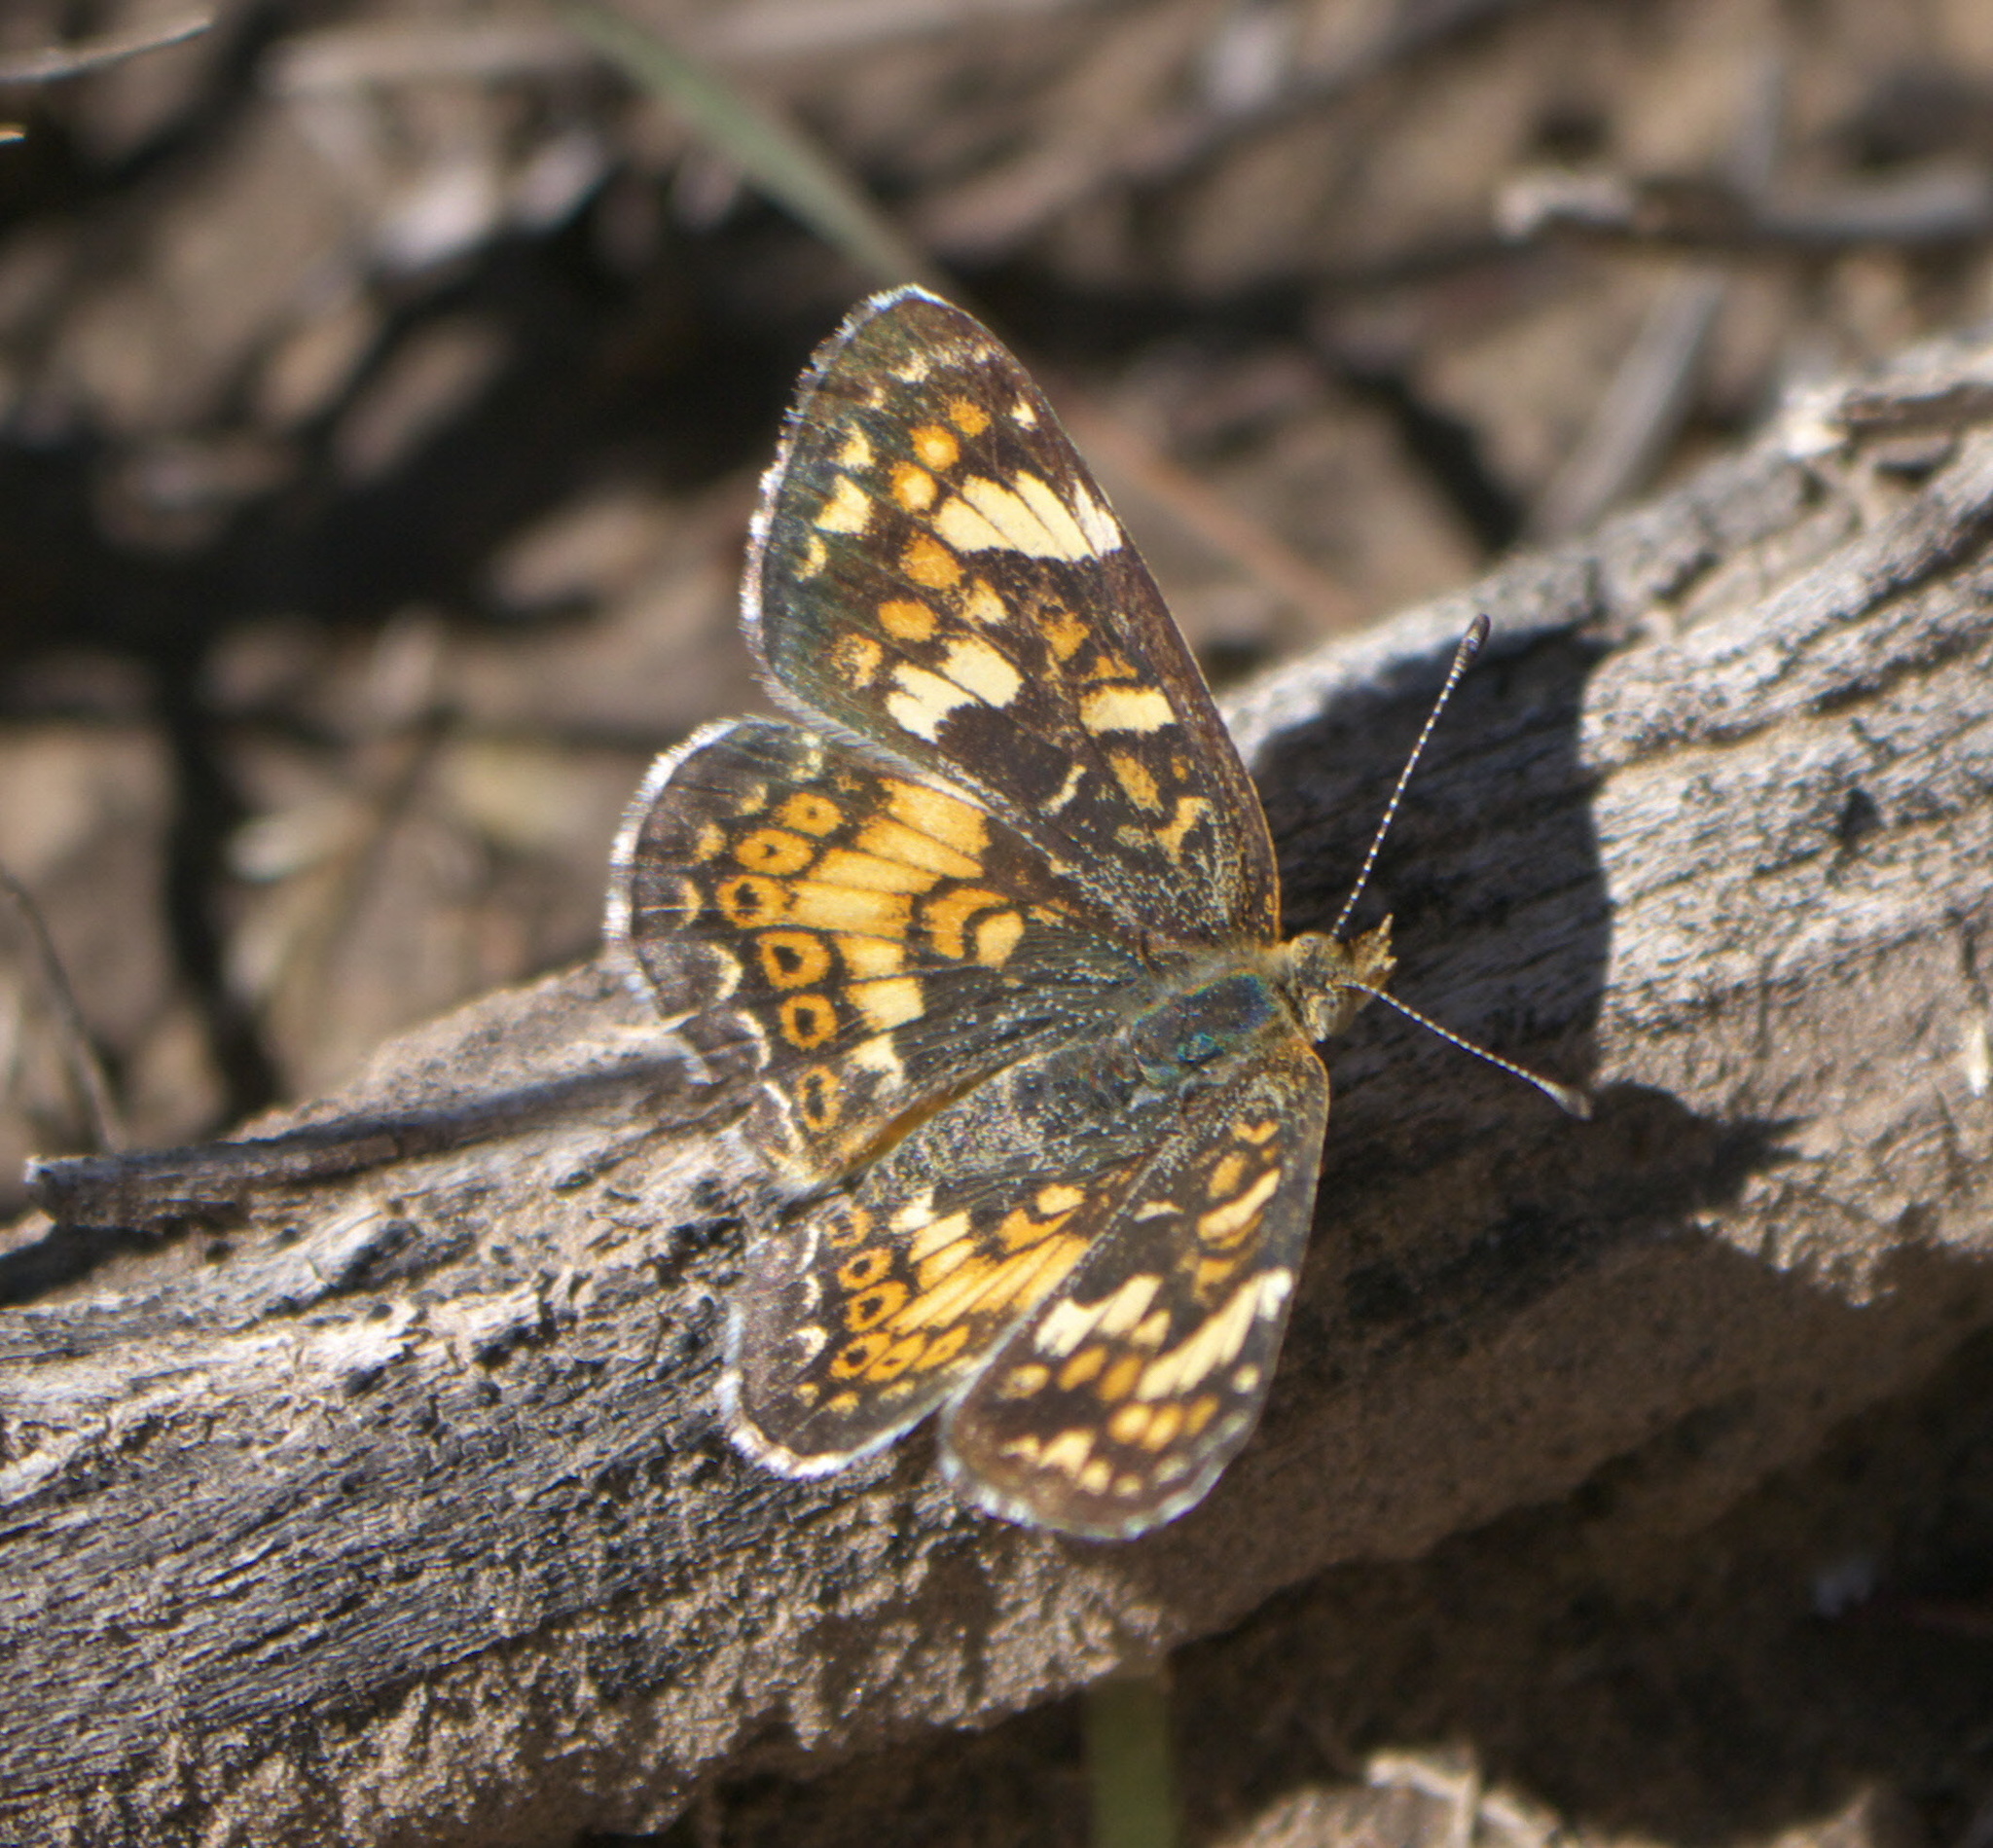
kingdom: Animalia
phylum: Arthropoda
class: Insecta
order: Lepidoptera
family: Nymphalidae
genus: Phyciodes
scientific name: Phyciodes tharos
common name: Pearl crescent
